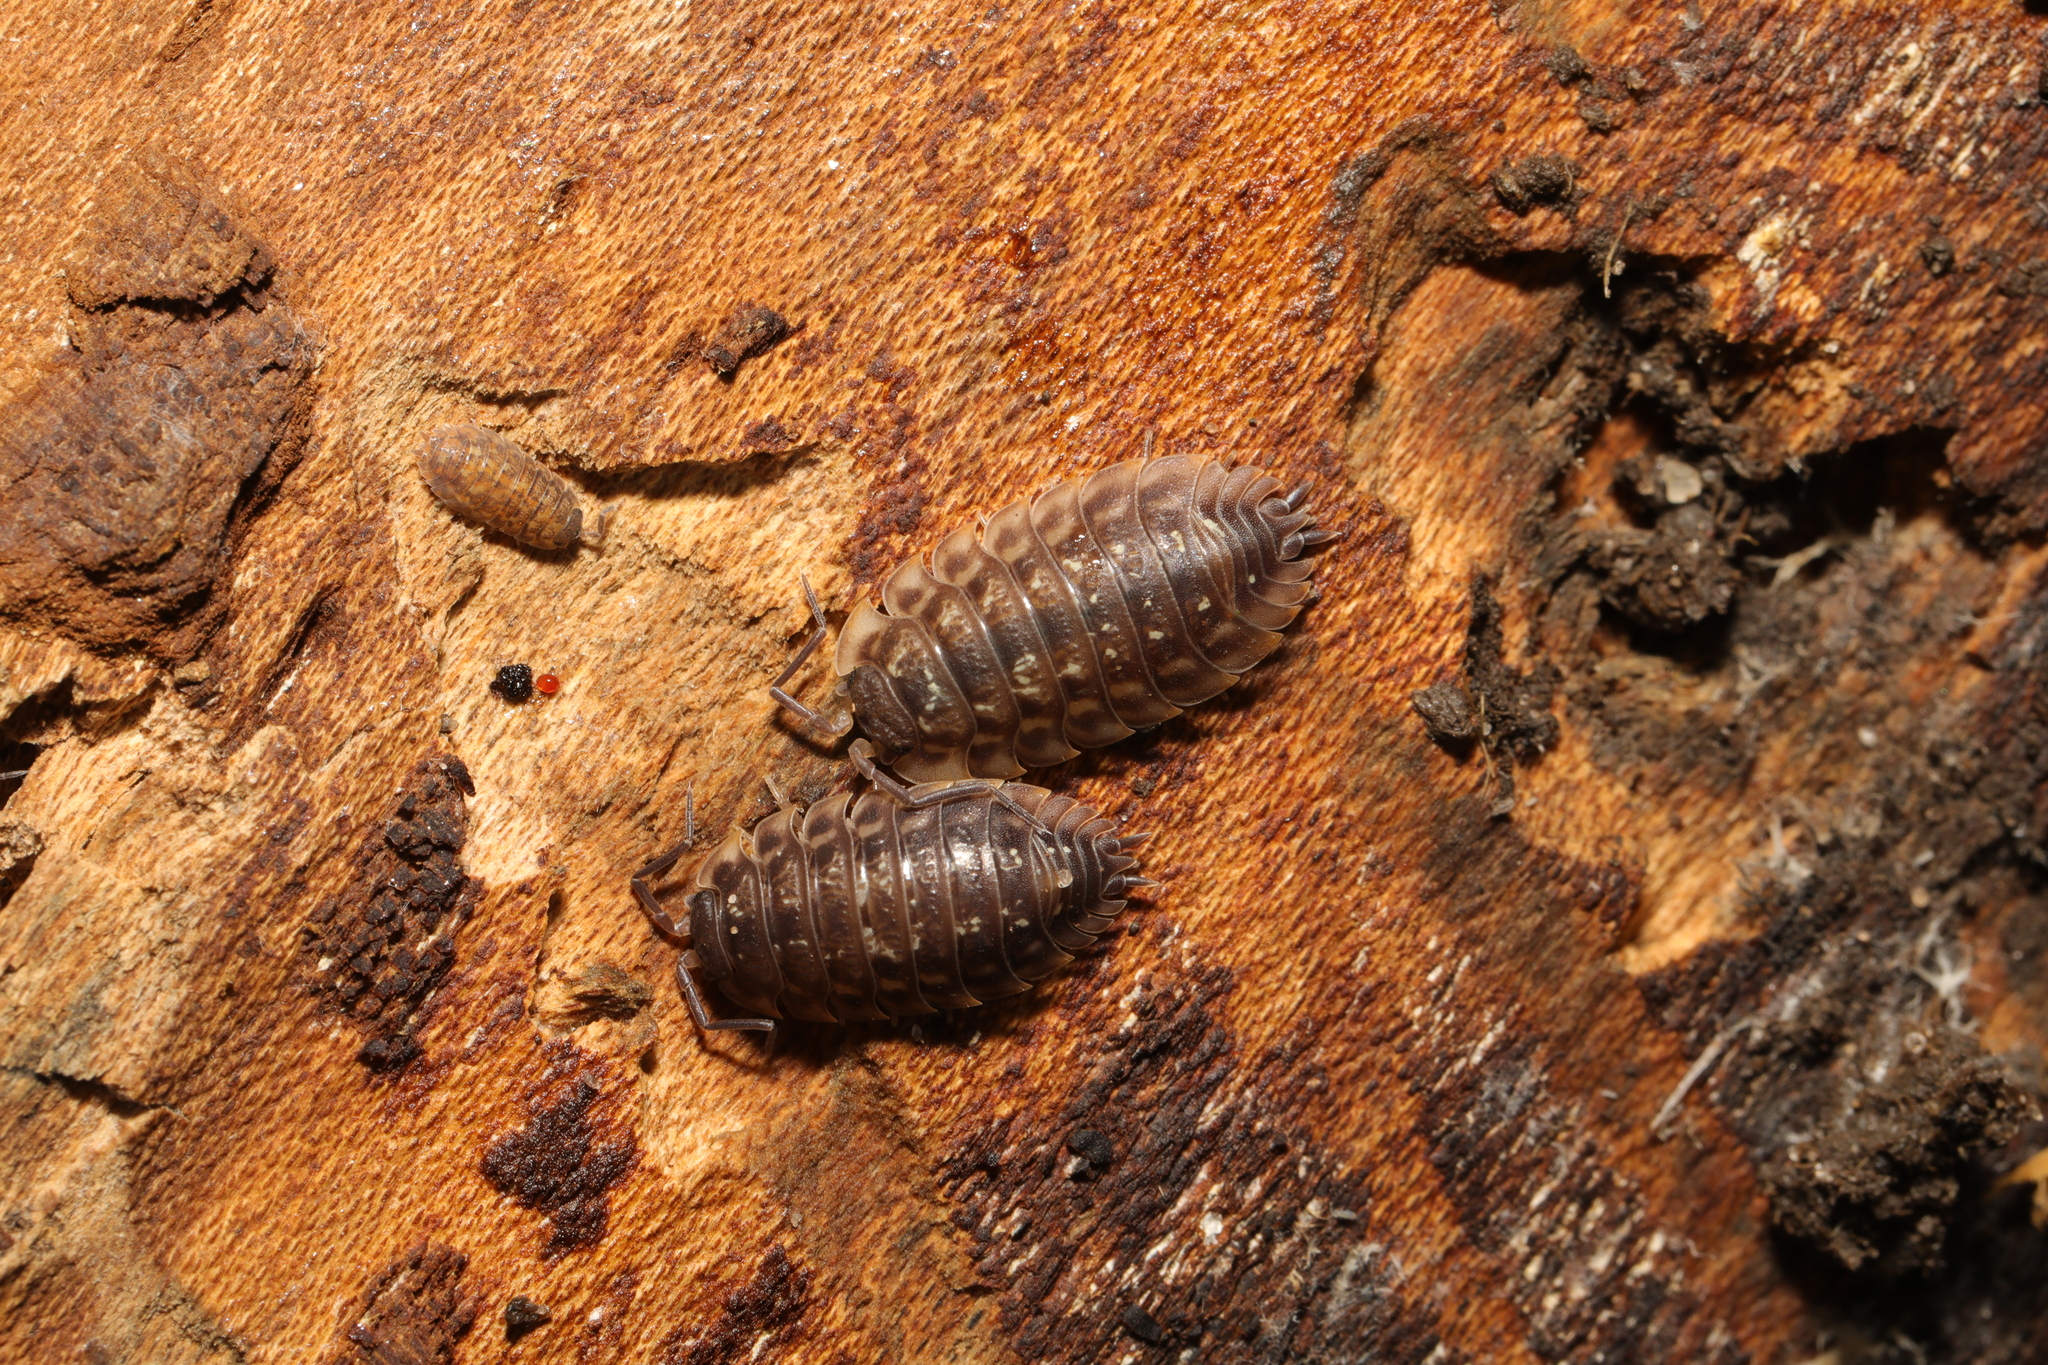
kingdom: Animalia
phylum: Arthropoda
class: Malacostraca
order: Isopoda
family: Oniscidae
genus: Oniscus
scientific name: Oniscus asellus
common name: Common shiny woodlouse
